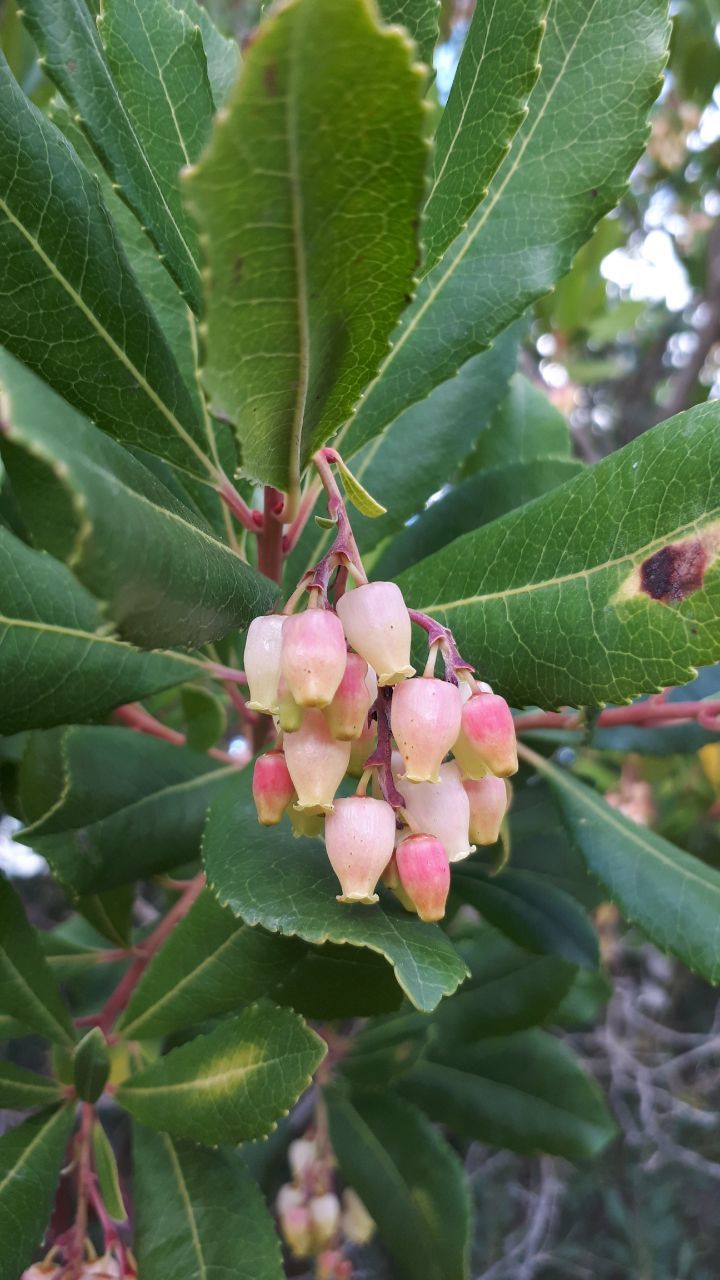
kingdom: Plantae
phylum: Tracheophyta
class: Magnoliopsida
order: Ericales
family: Ericaceae
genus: Arbutus
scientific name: Arbutus unedo
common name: Strawberry-tree
